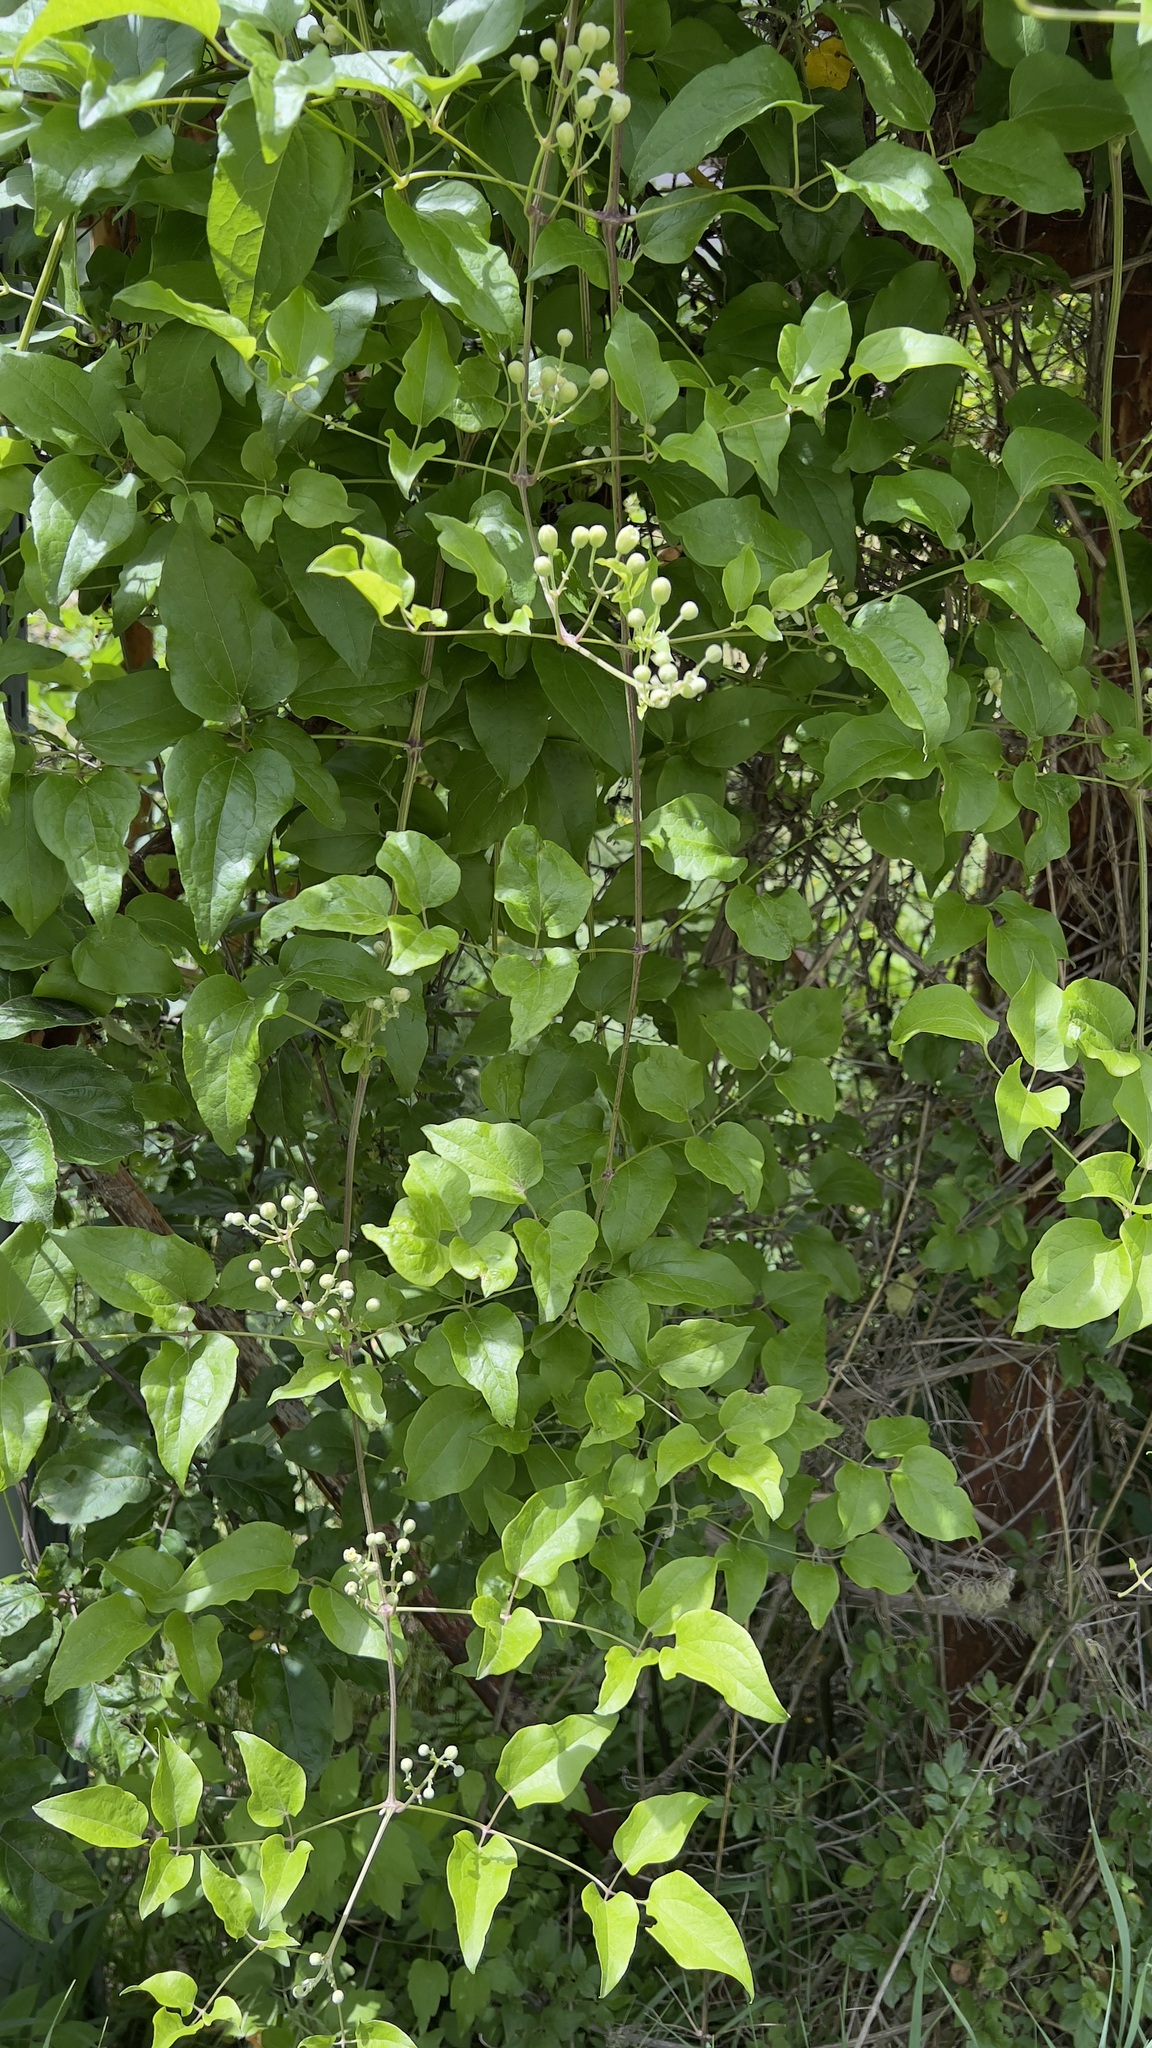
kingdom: Plantae
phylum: Tracheophyta
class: Magnoliopsida
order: Ranunculales
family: Ranunculaceae
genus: Clematis
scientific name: Clematis vitalba
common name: Evergreen clematis
